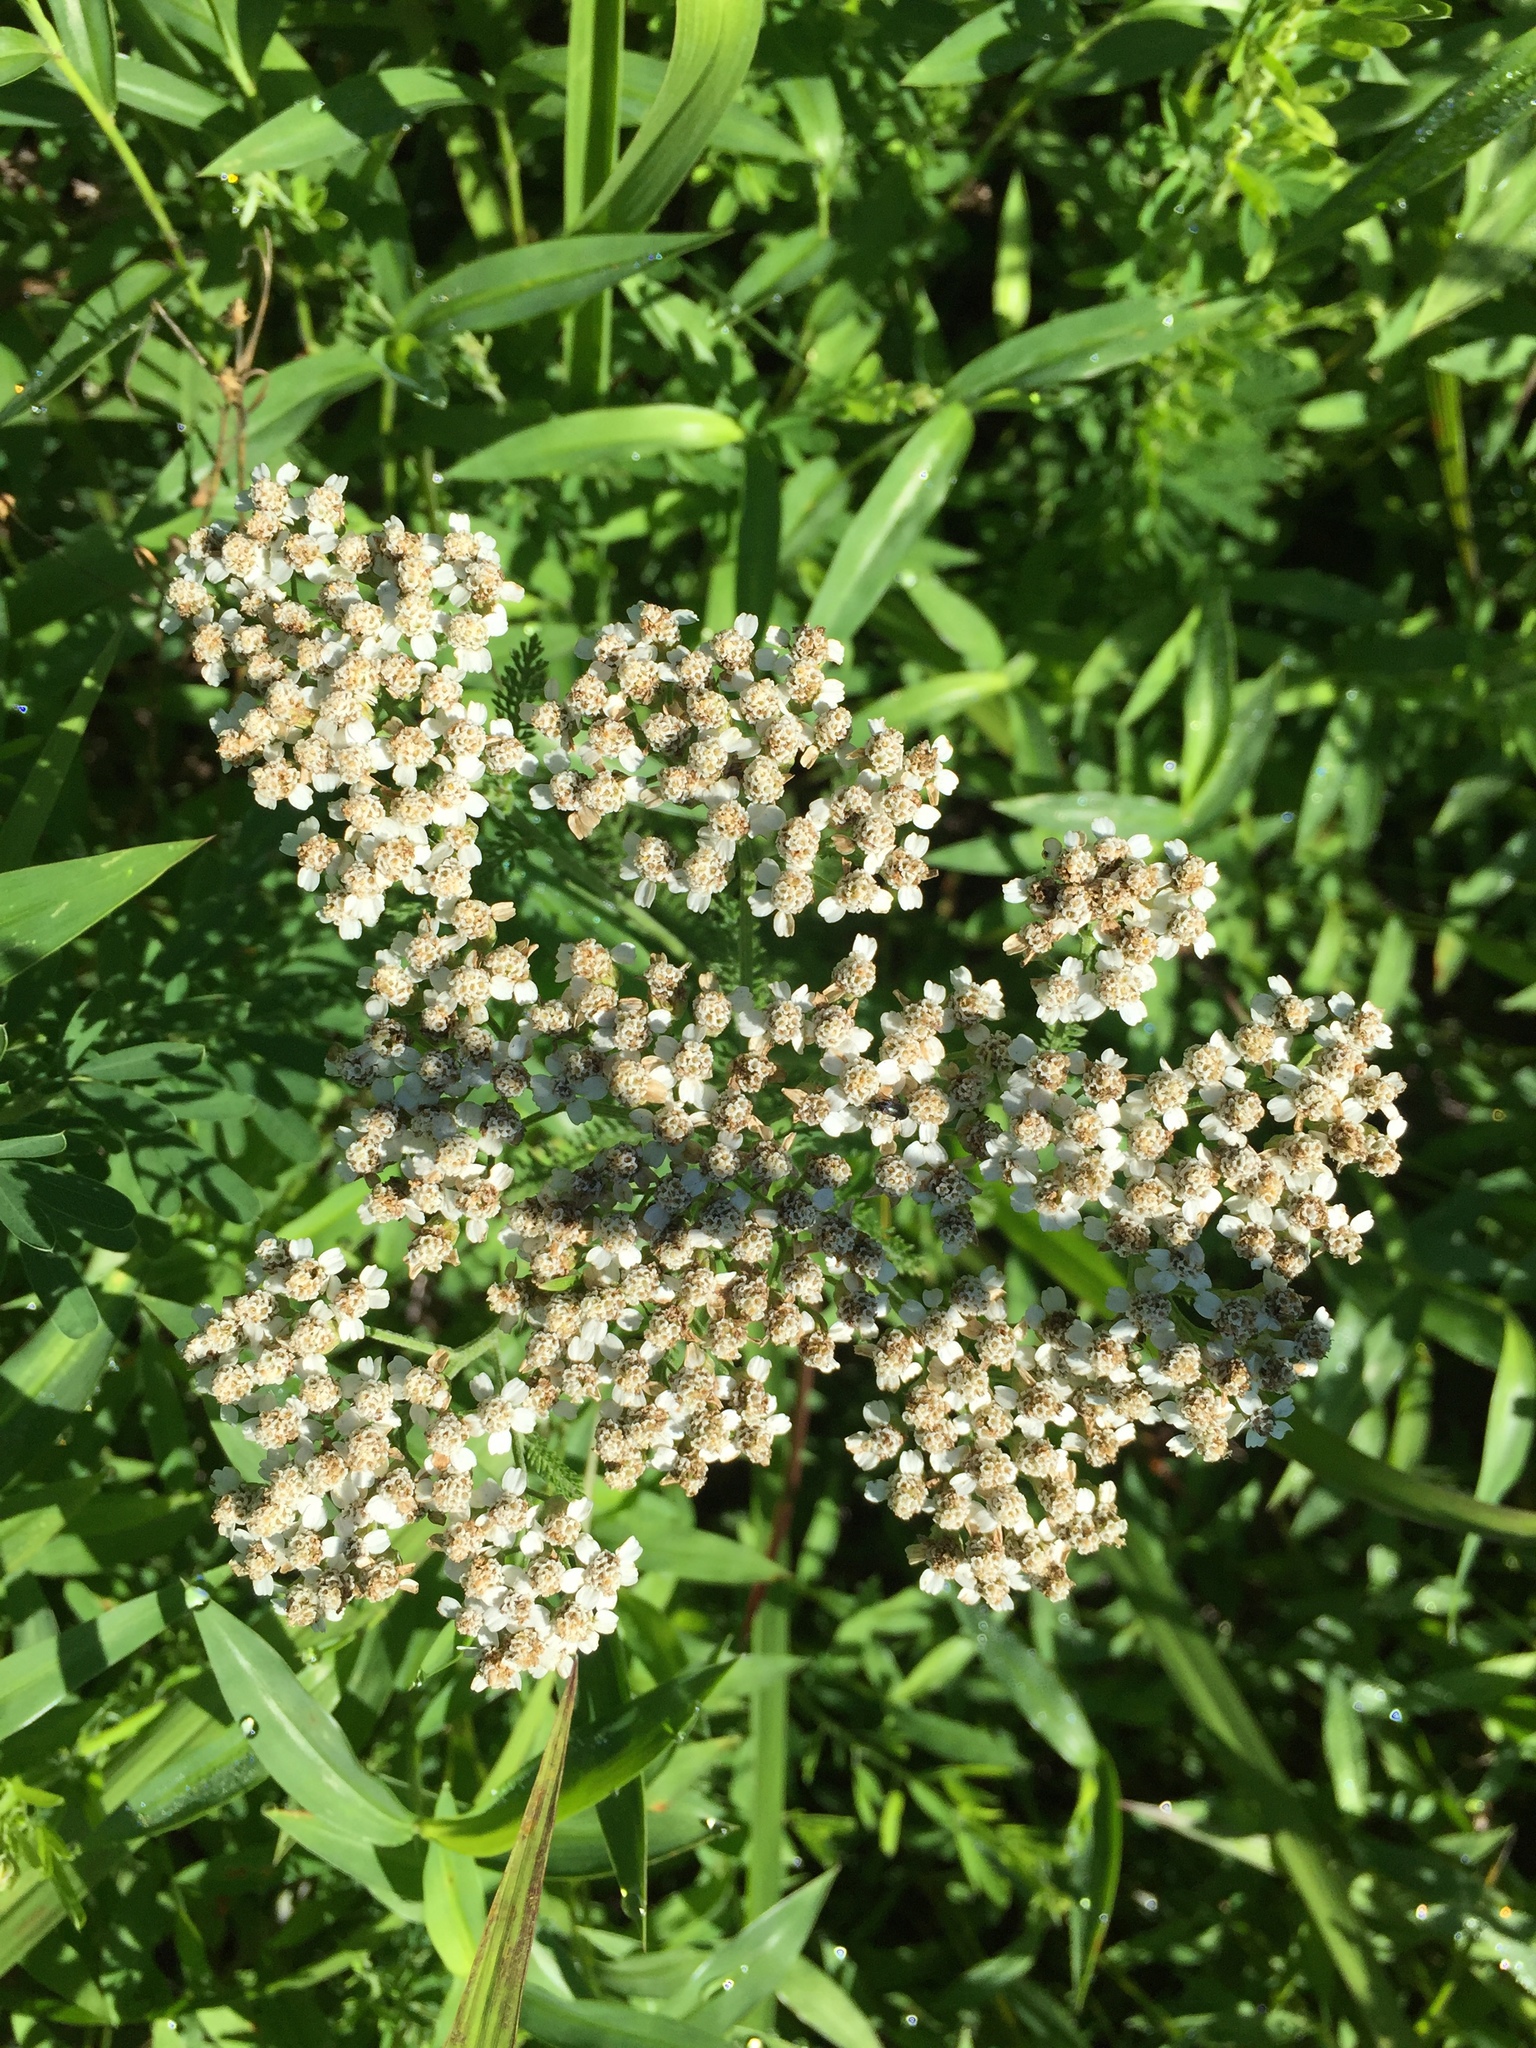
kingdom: Plantae
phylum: Tracheophyta
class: Magnoliopsida
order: Asterales
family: Asteraceae
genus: Achillea
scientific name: Achillea millefolium
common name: Yarrow
